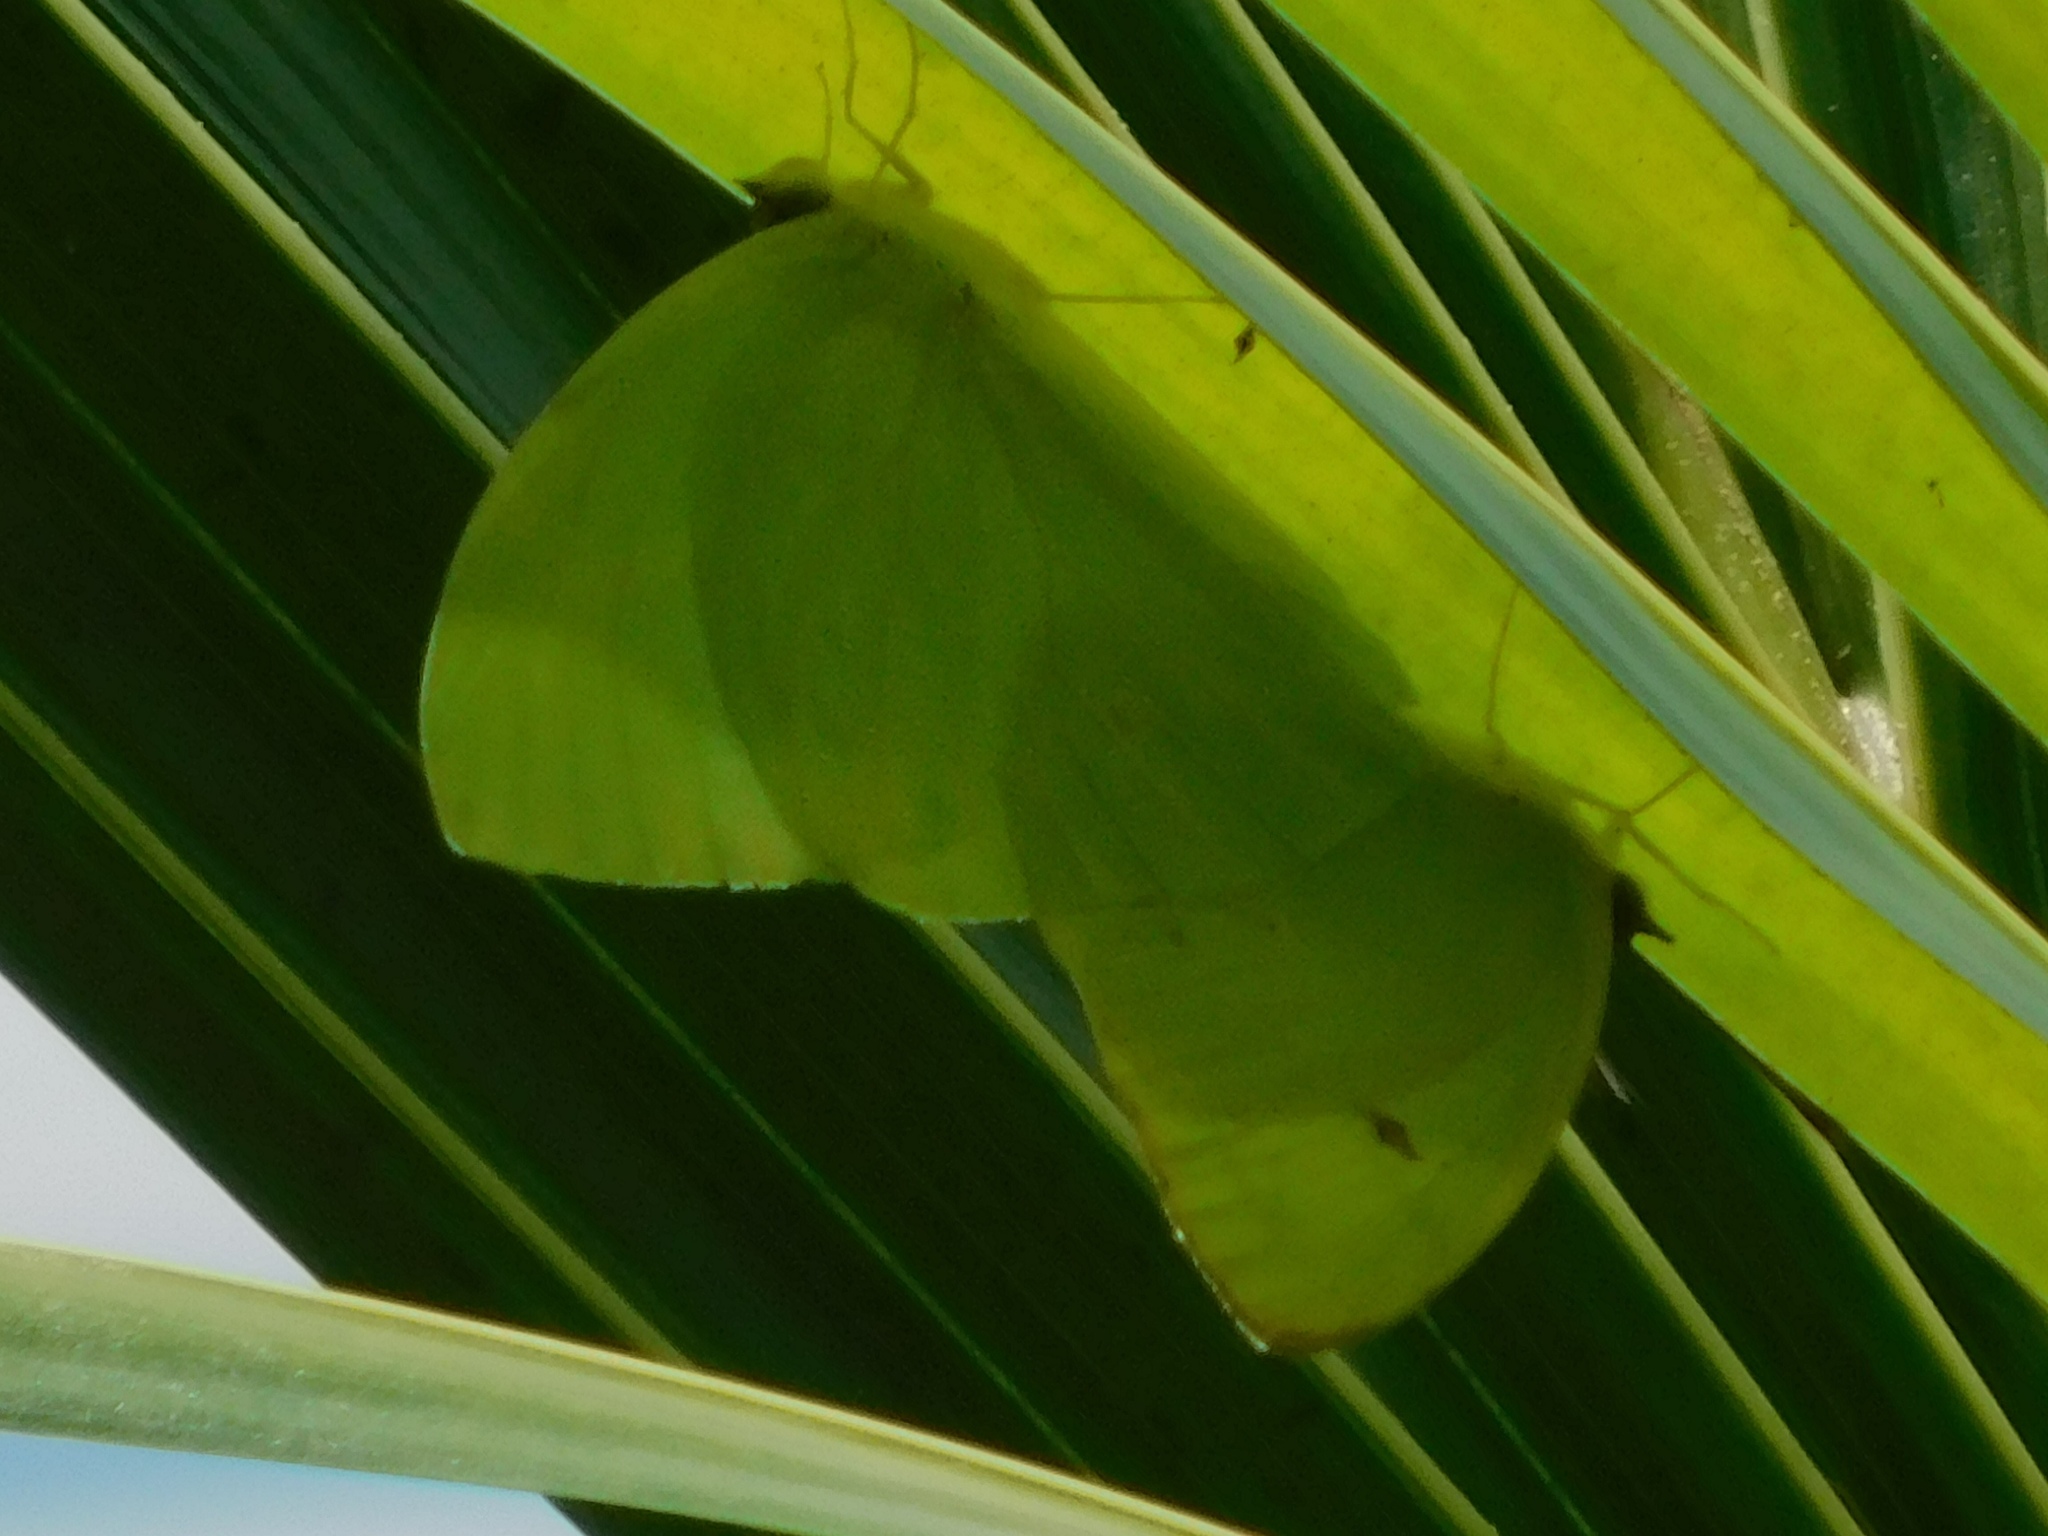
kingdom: Animalia
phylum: Arthropoda
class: Insecta
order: Lepidoptera
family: Pieridae
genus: Aphrissa
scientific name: Aphrissa statira
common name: Statira sulphur
